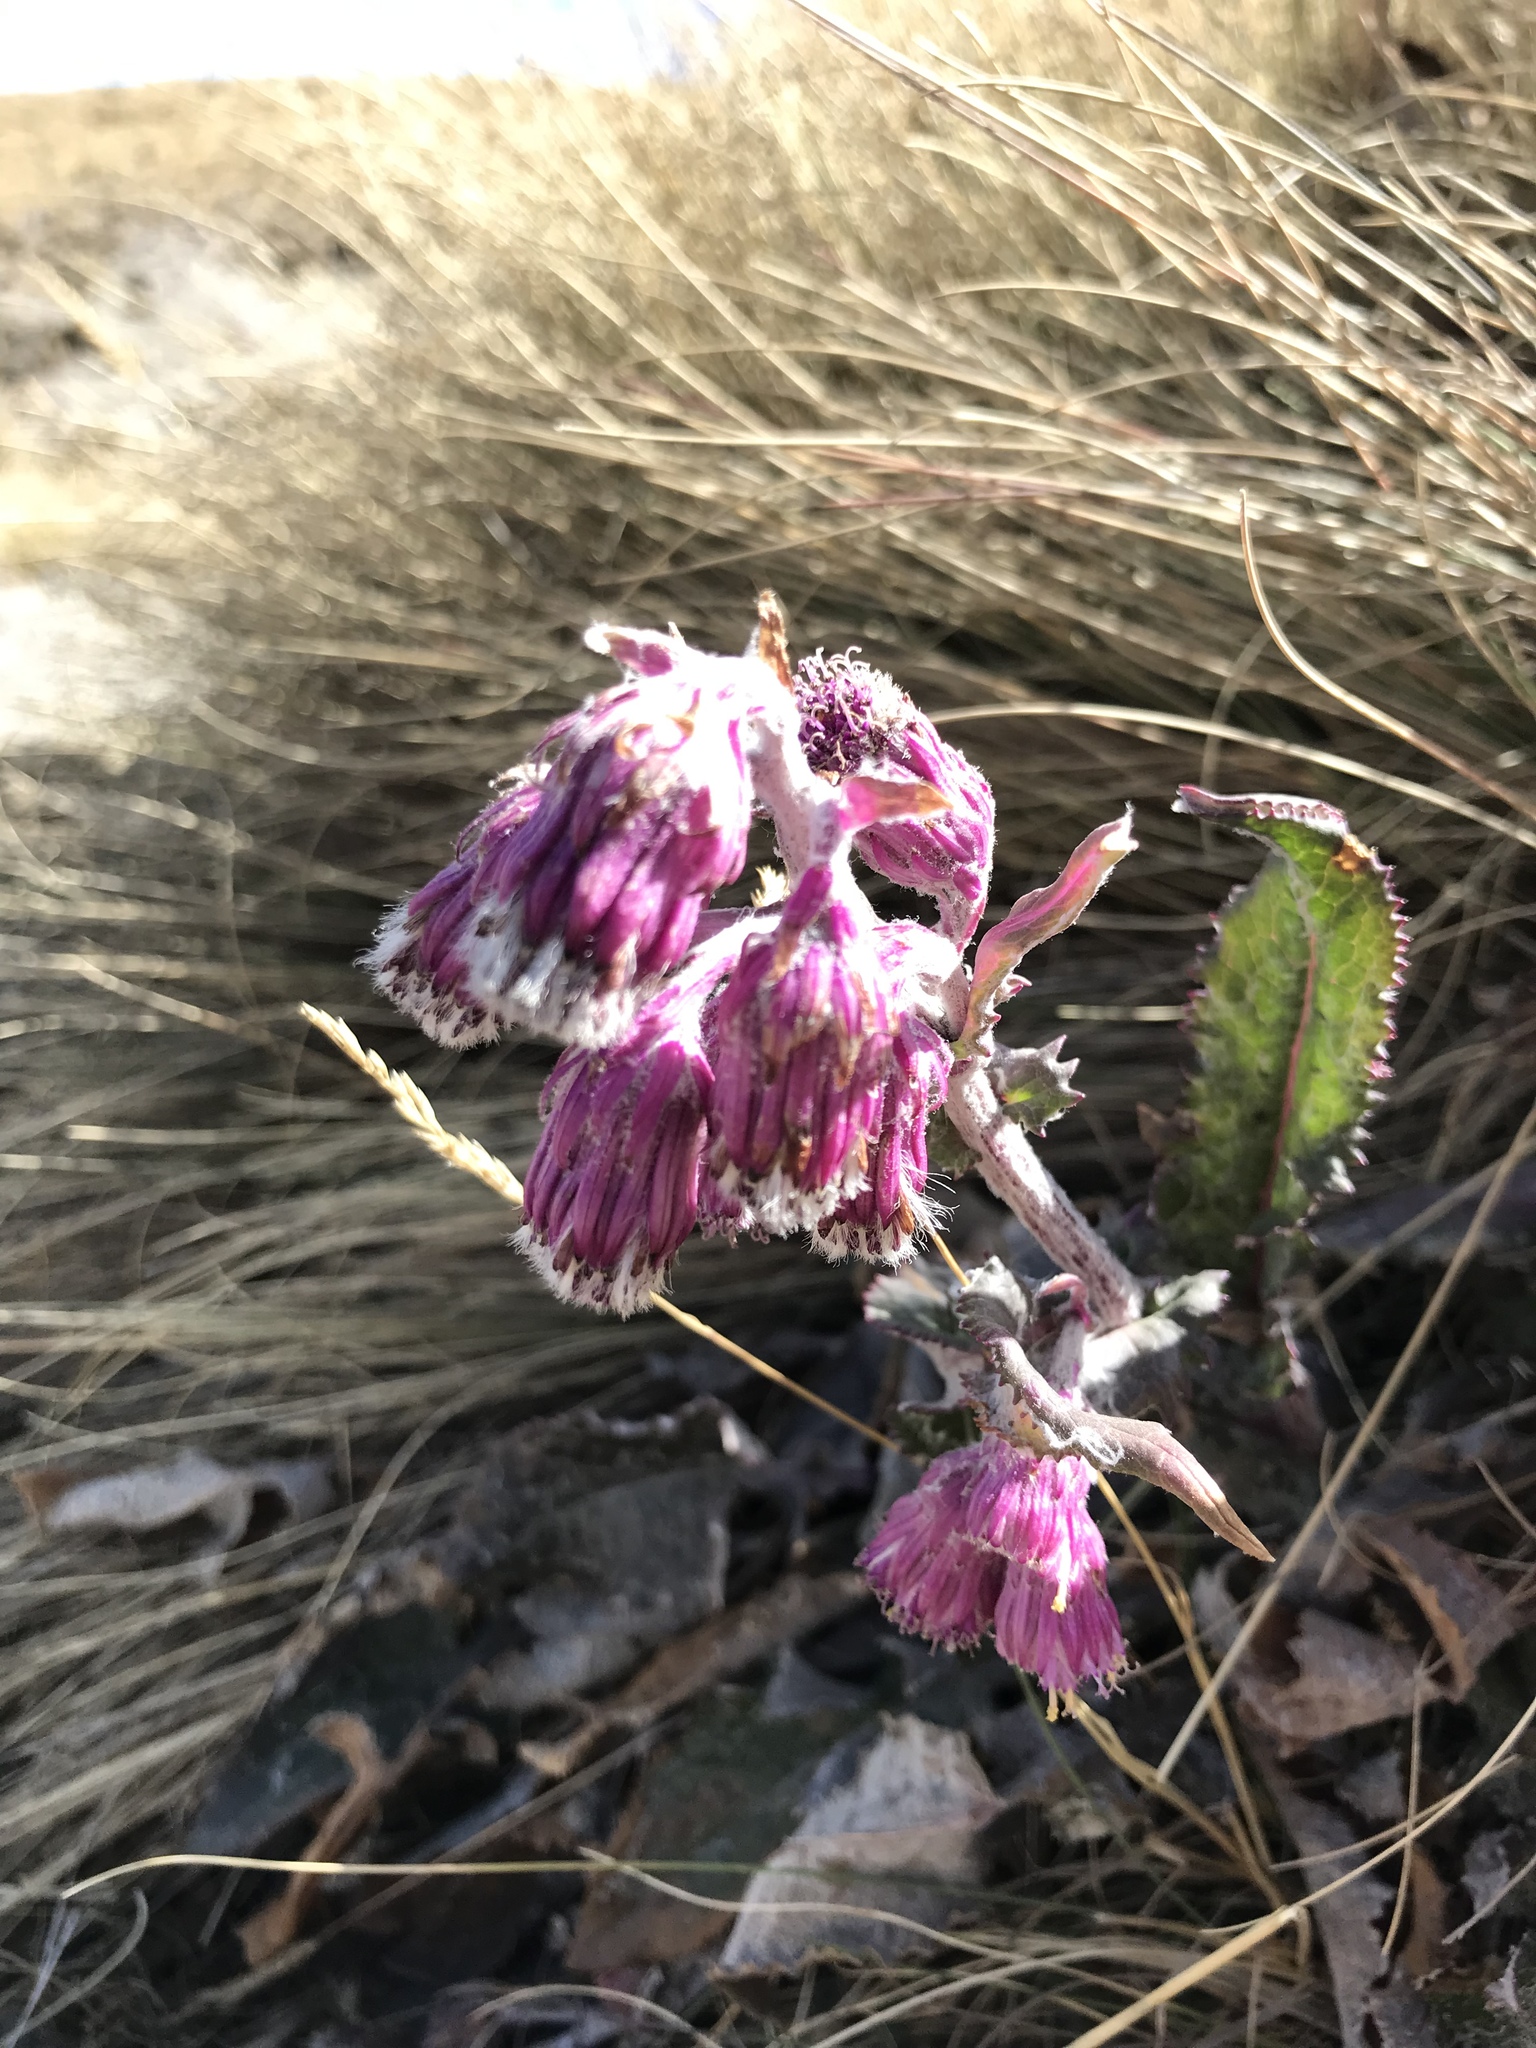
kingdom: Plantae
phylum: Tracheophyta
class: Magnoliopsida
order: Asterales
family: Asteraceae
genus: Senecio
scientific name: Senecio roseus
